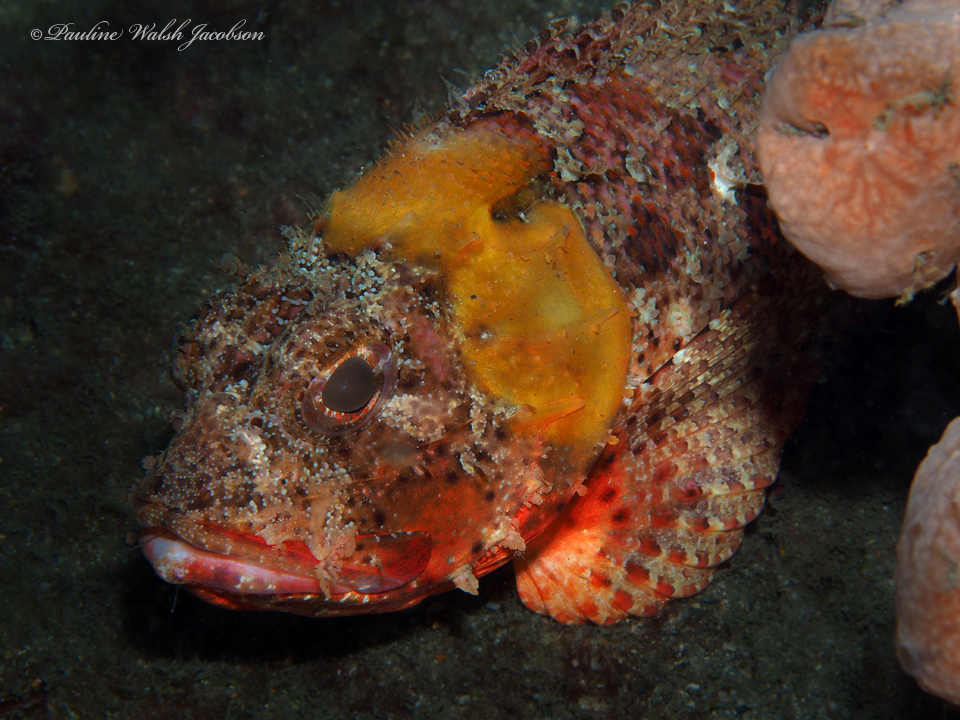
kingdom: Animalia
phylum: Chordata
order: Scorpaeniformes
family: Scorpaenidae
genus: Scorpaena
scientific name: Scorpaena brasiliensis
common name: Barbfish
